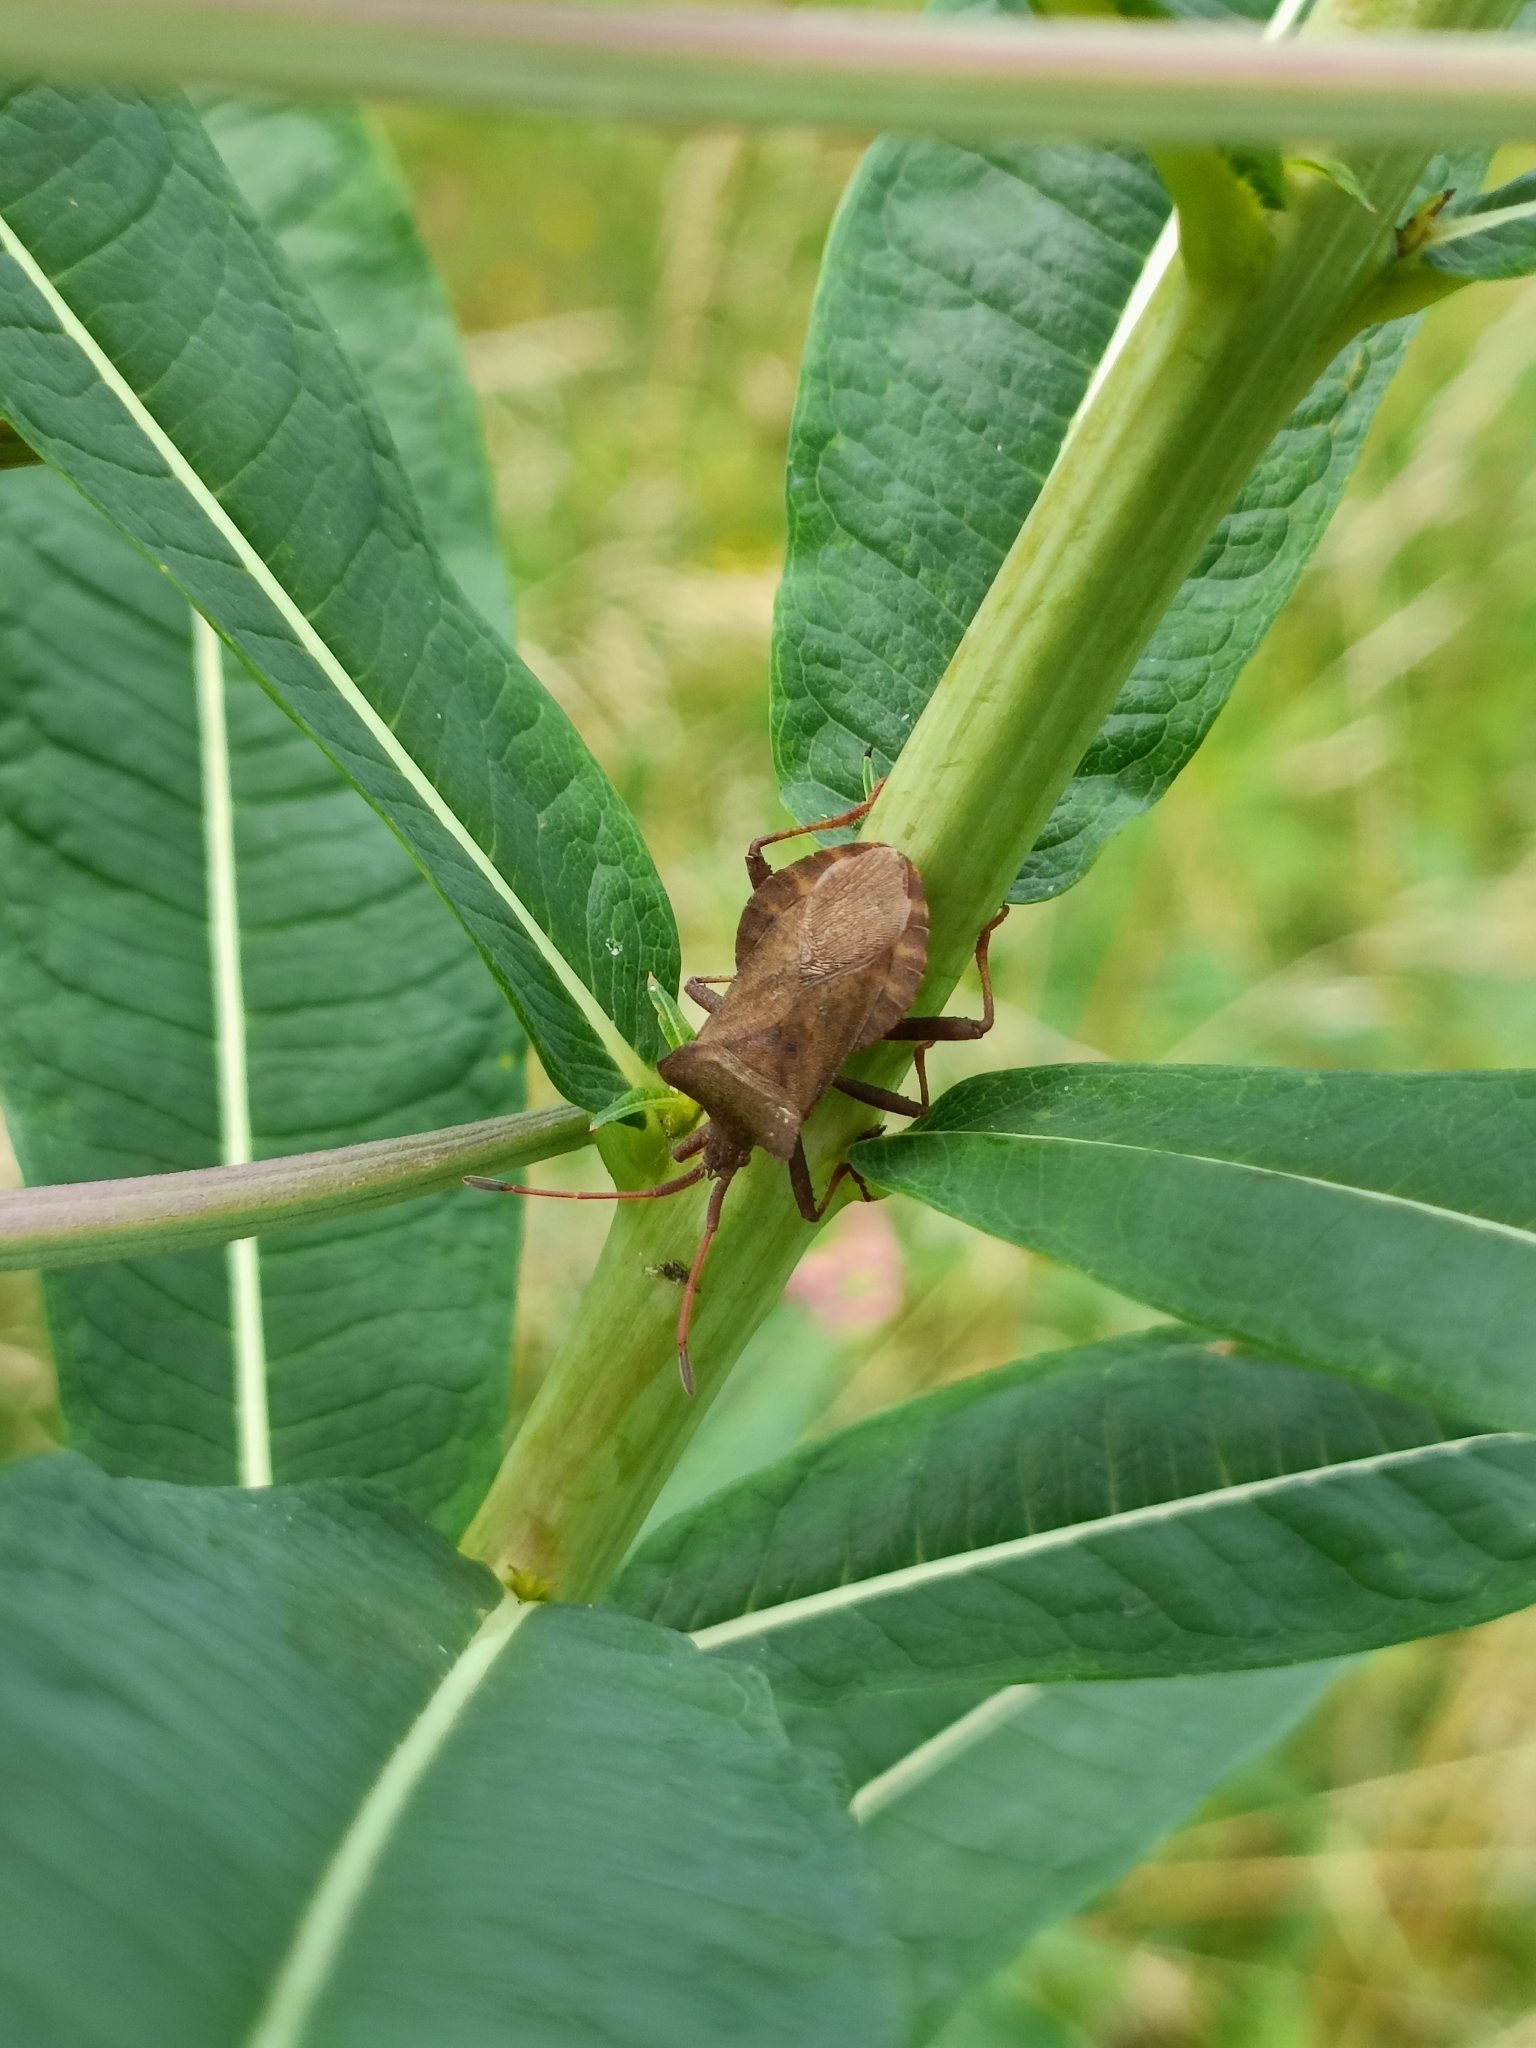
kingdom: Animalia
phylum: Arthropoda
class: Insecta
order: Hemiptera
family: Coreidae
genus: Coreus
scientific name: Coreus marginatus
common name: Dock bug
